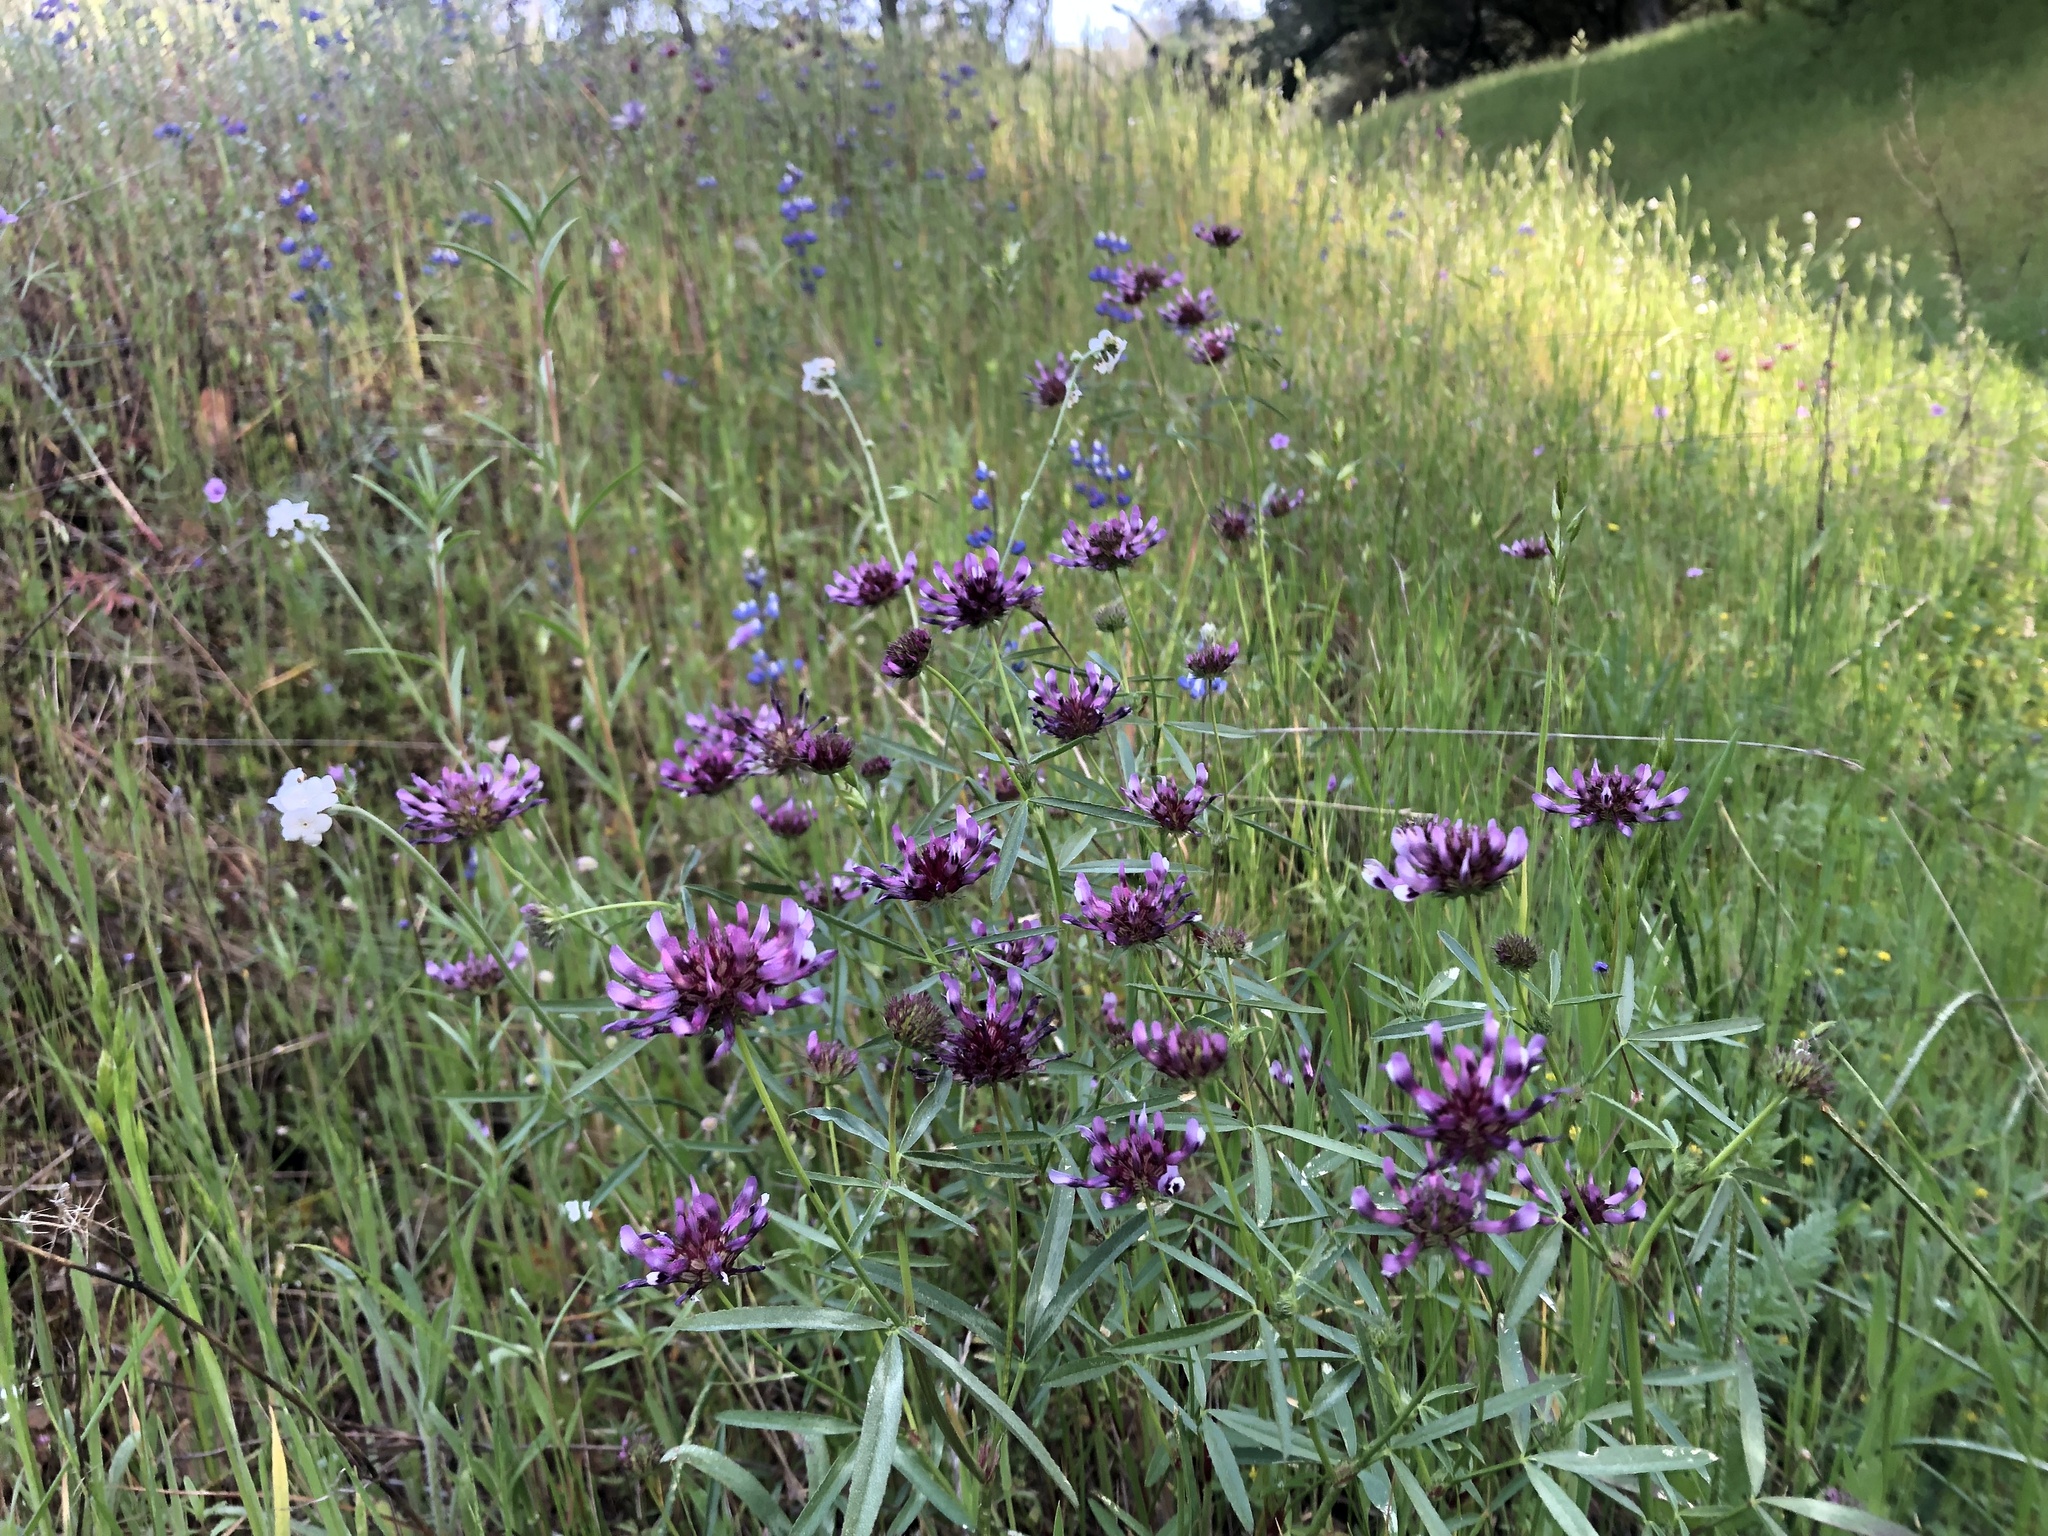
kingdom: Plantae
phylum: Tracheophyta
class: Magnoliopsida
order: Fabales
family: Fabaceae
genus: Trifolium
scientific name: Trifolium willdenovii
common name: Tomcat clover
